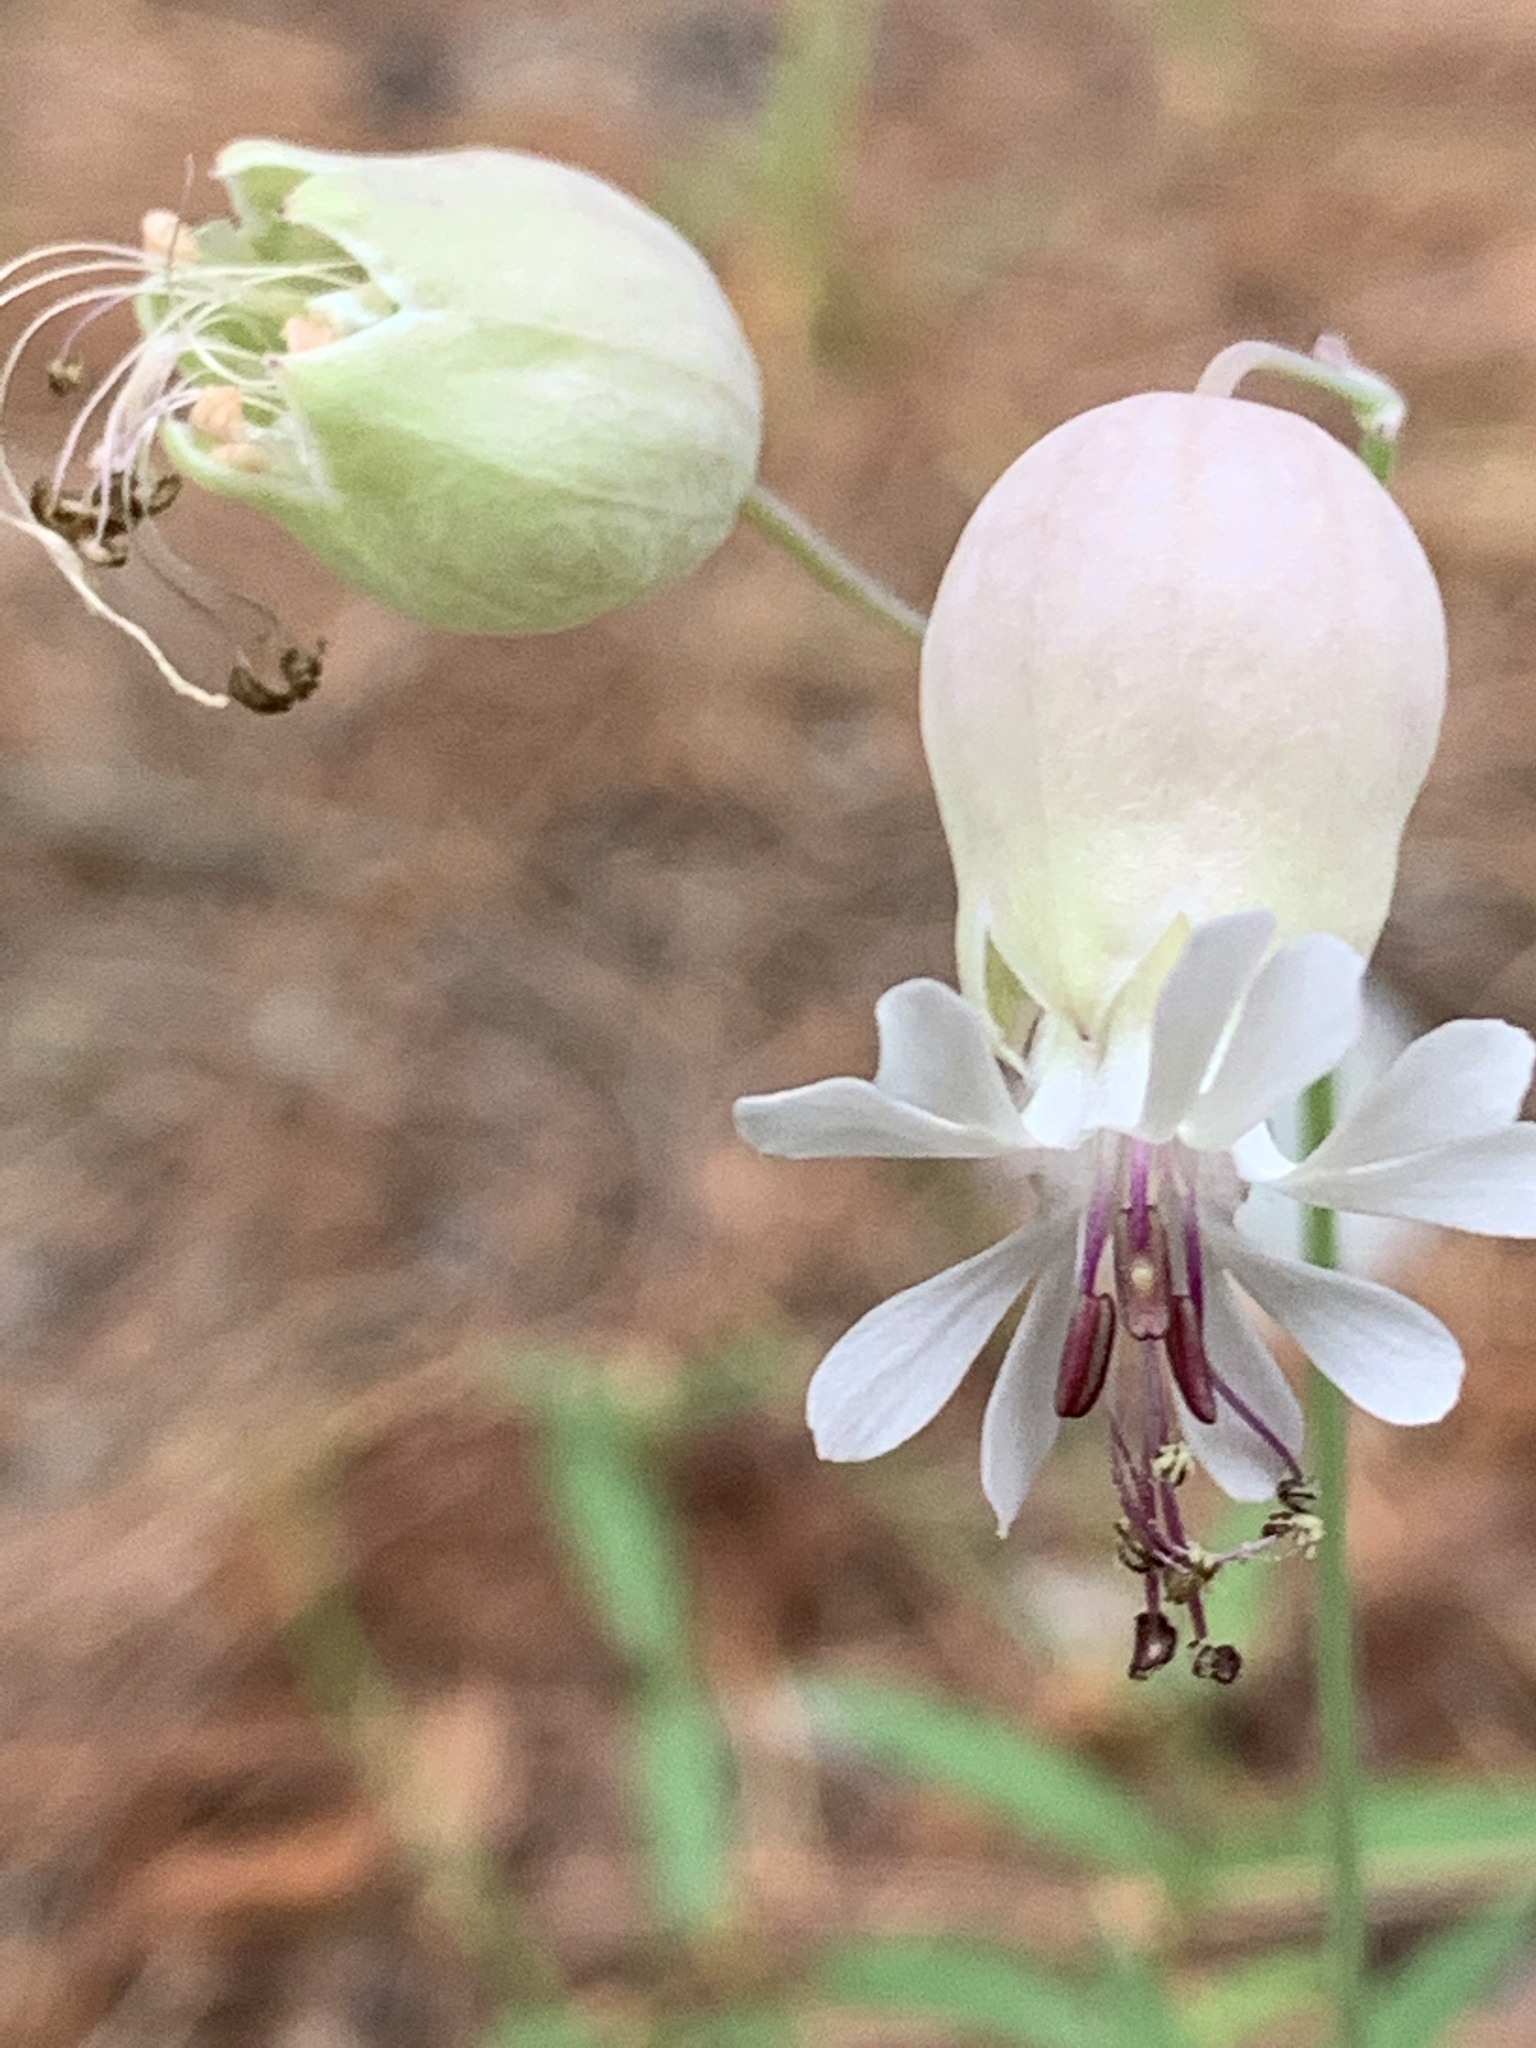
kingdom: Plantae
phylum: Tracheophyta
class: Magnoliopsida
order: Caryophyllales
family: Caryophyllaceae
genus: Silene
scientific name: Silene vulgaris
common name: Bladder campion
